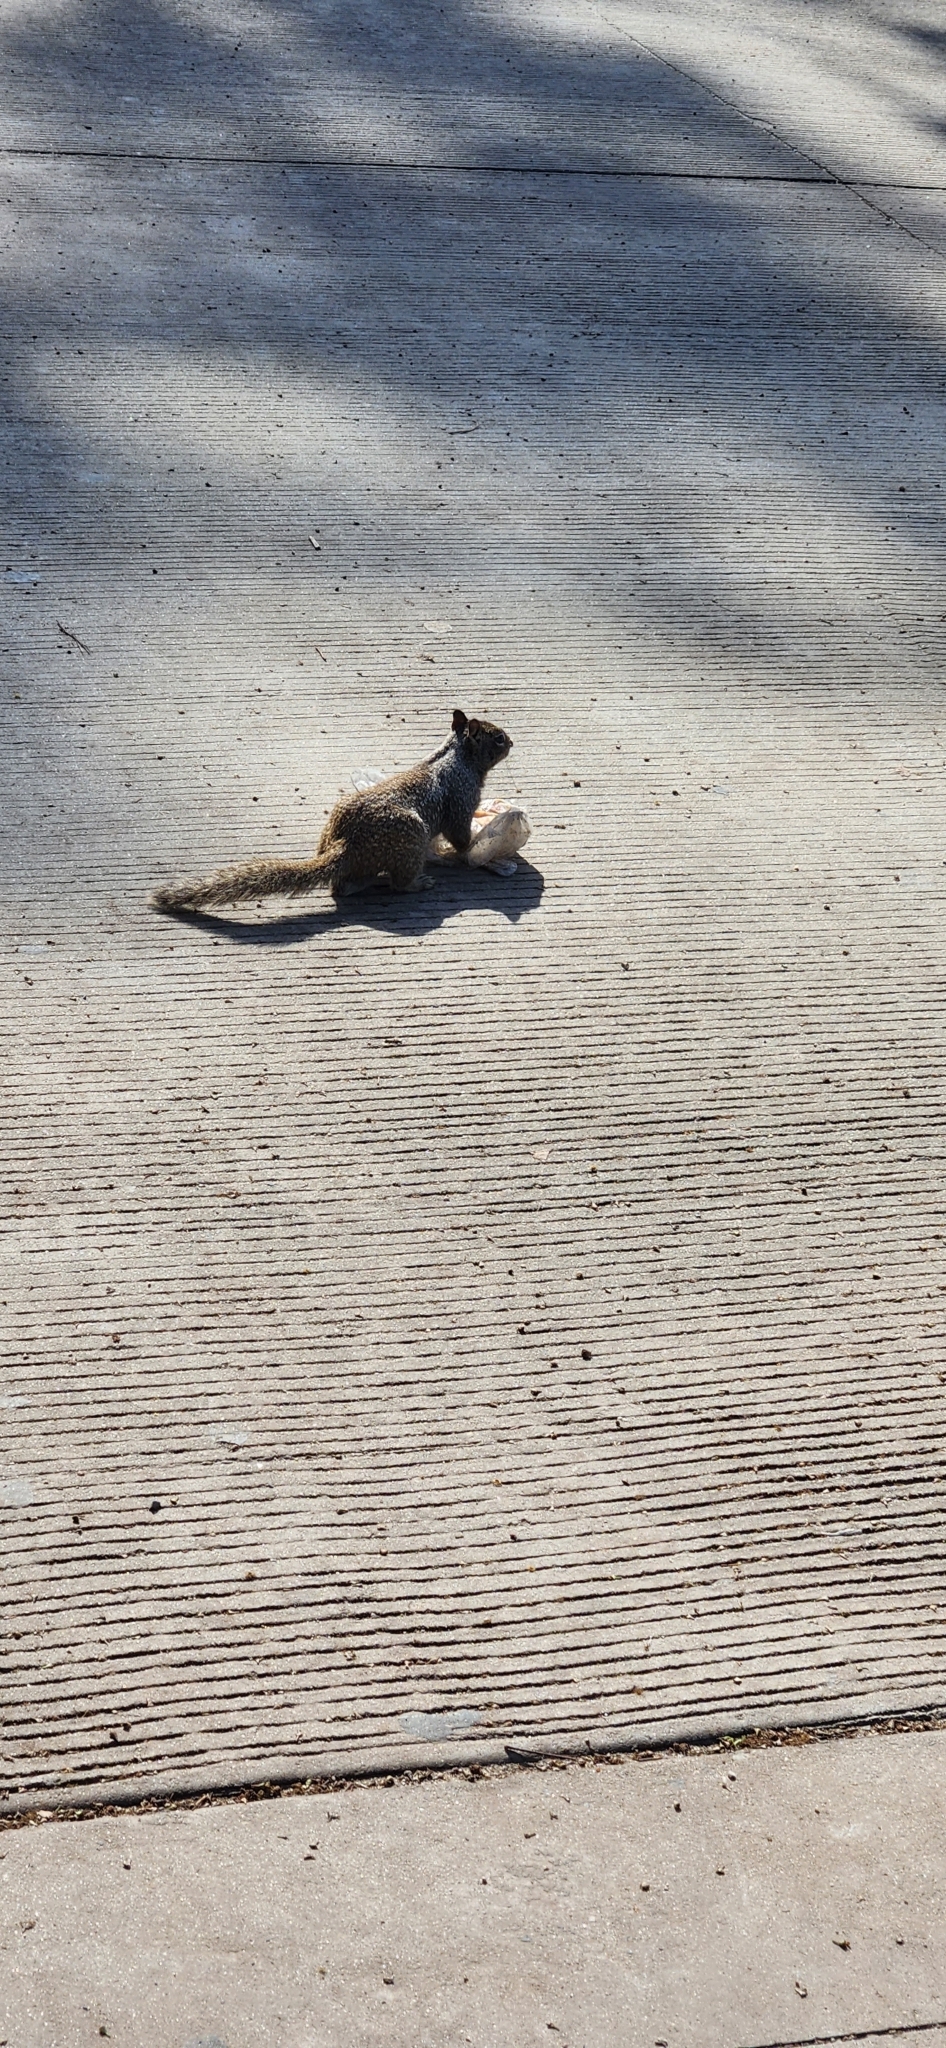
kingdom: Animalia
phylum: Chordata
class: Mammalia
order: Rodentia
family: Sciuridae
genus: Otospermophilus
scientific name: Otospermophilus beecheyi
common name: California ground squirrel
